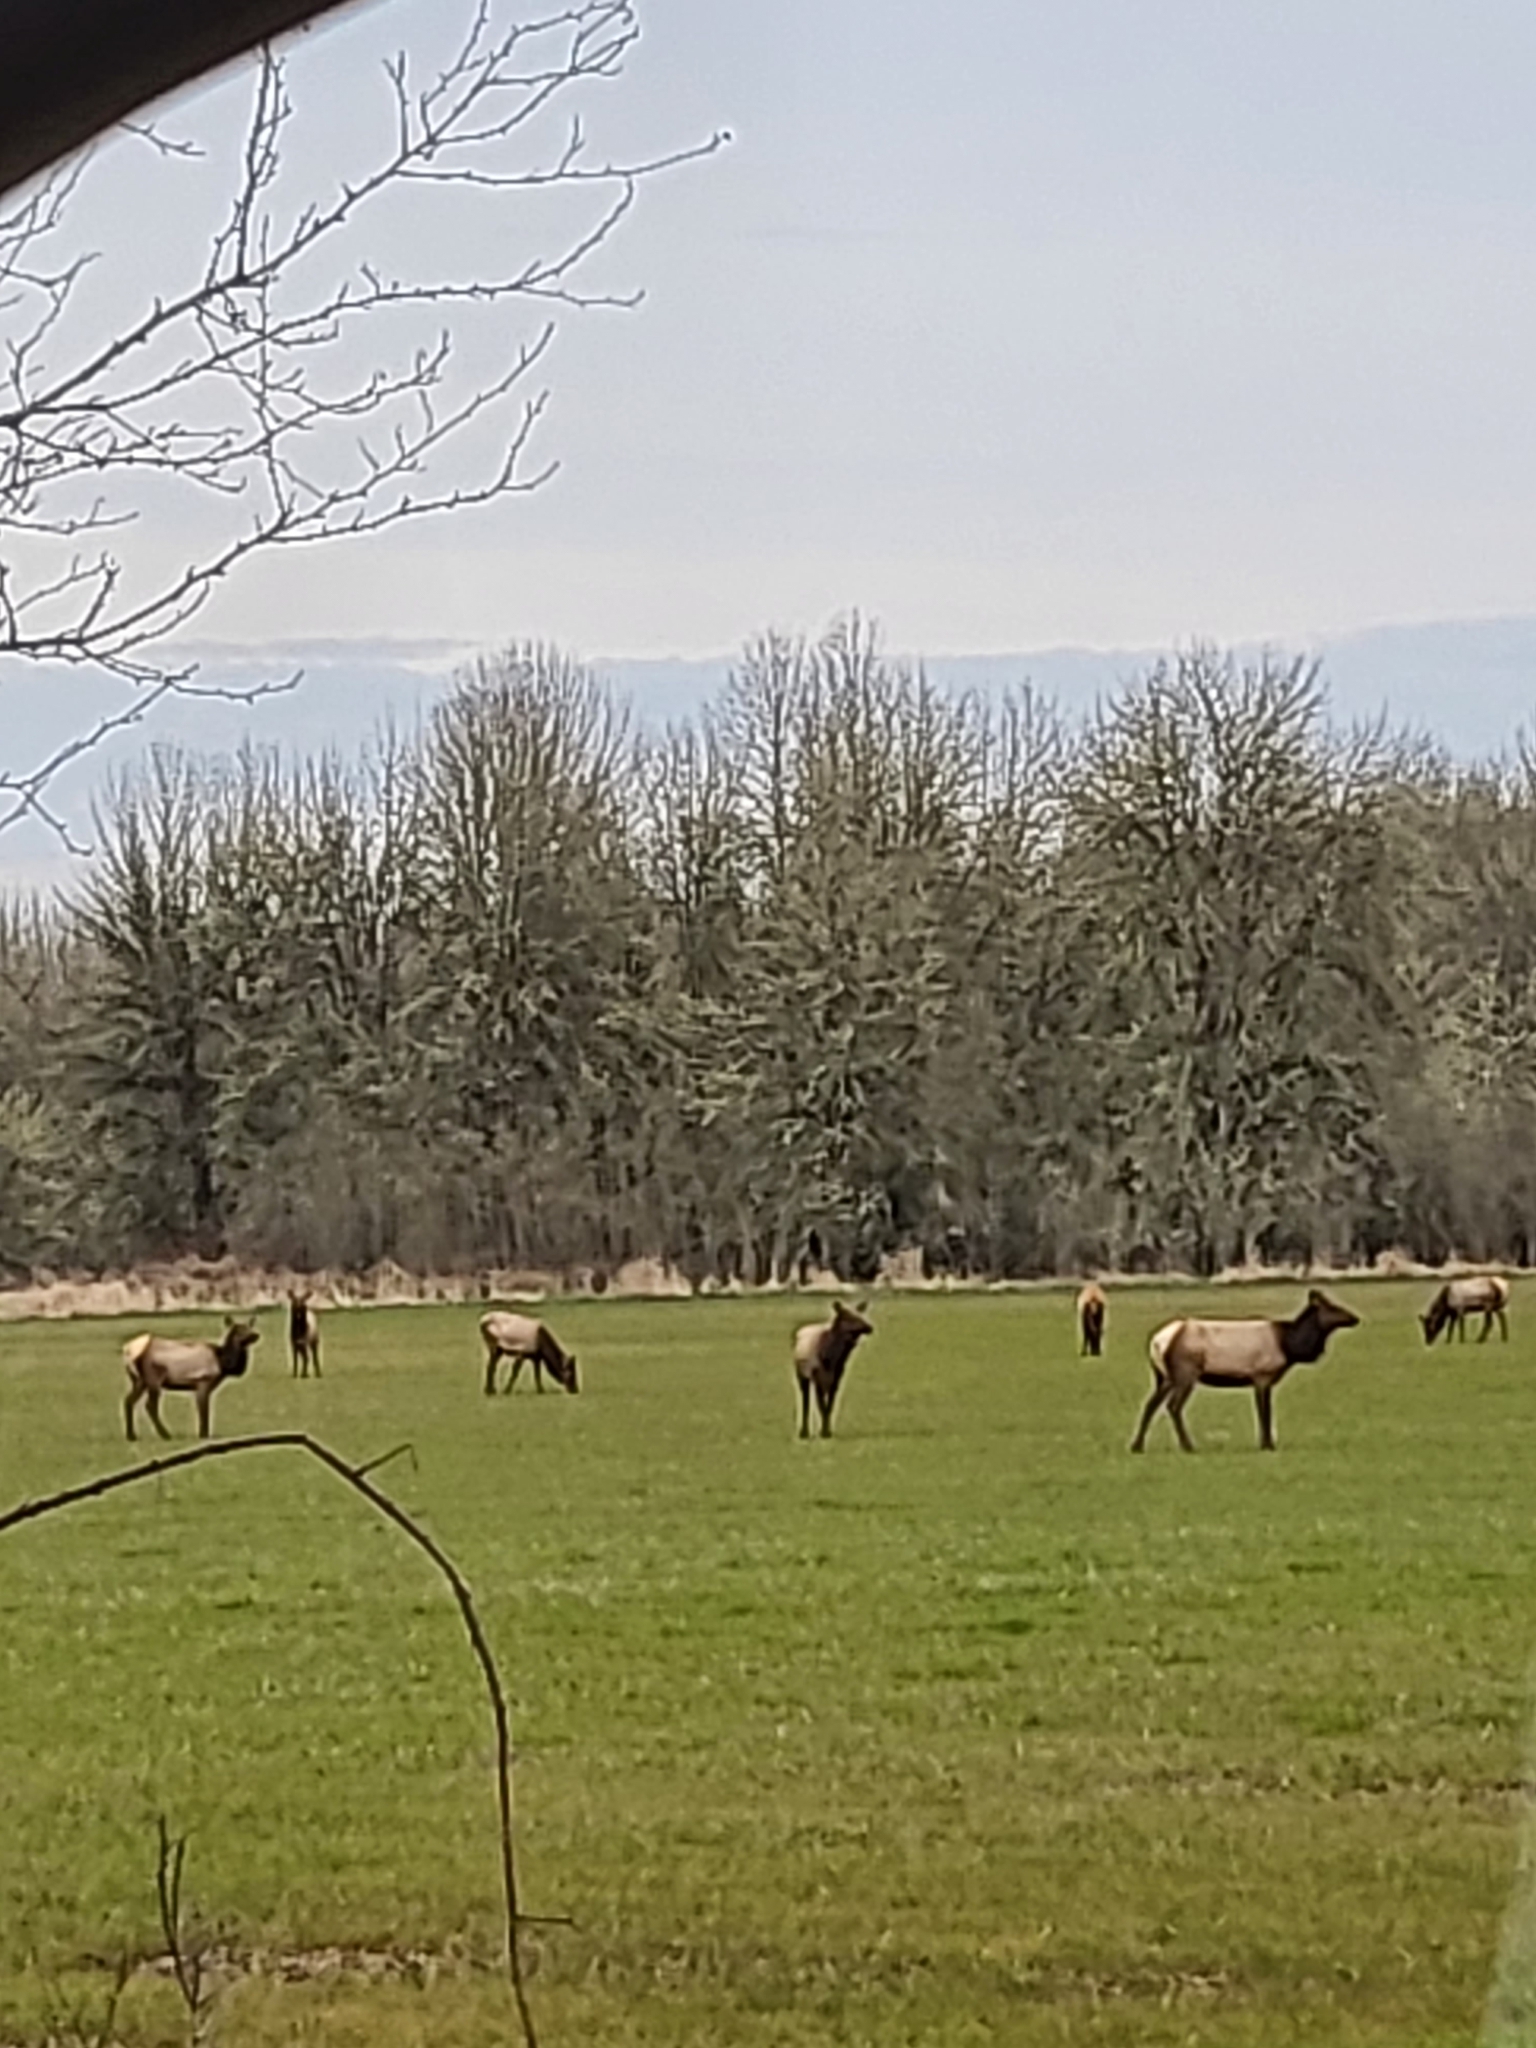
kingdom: Animalia
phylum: Chordata
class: Mammalia
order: Artiodactyla
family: Cervidae
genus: Cervus
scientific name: Cervus elaphus
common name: Red deer
